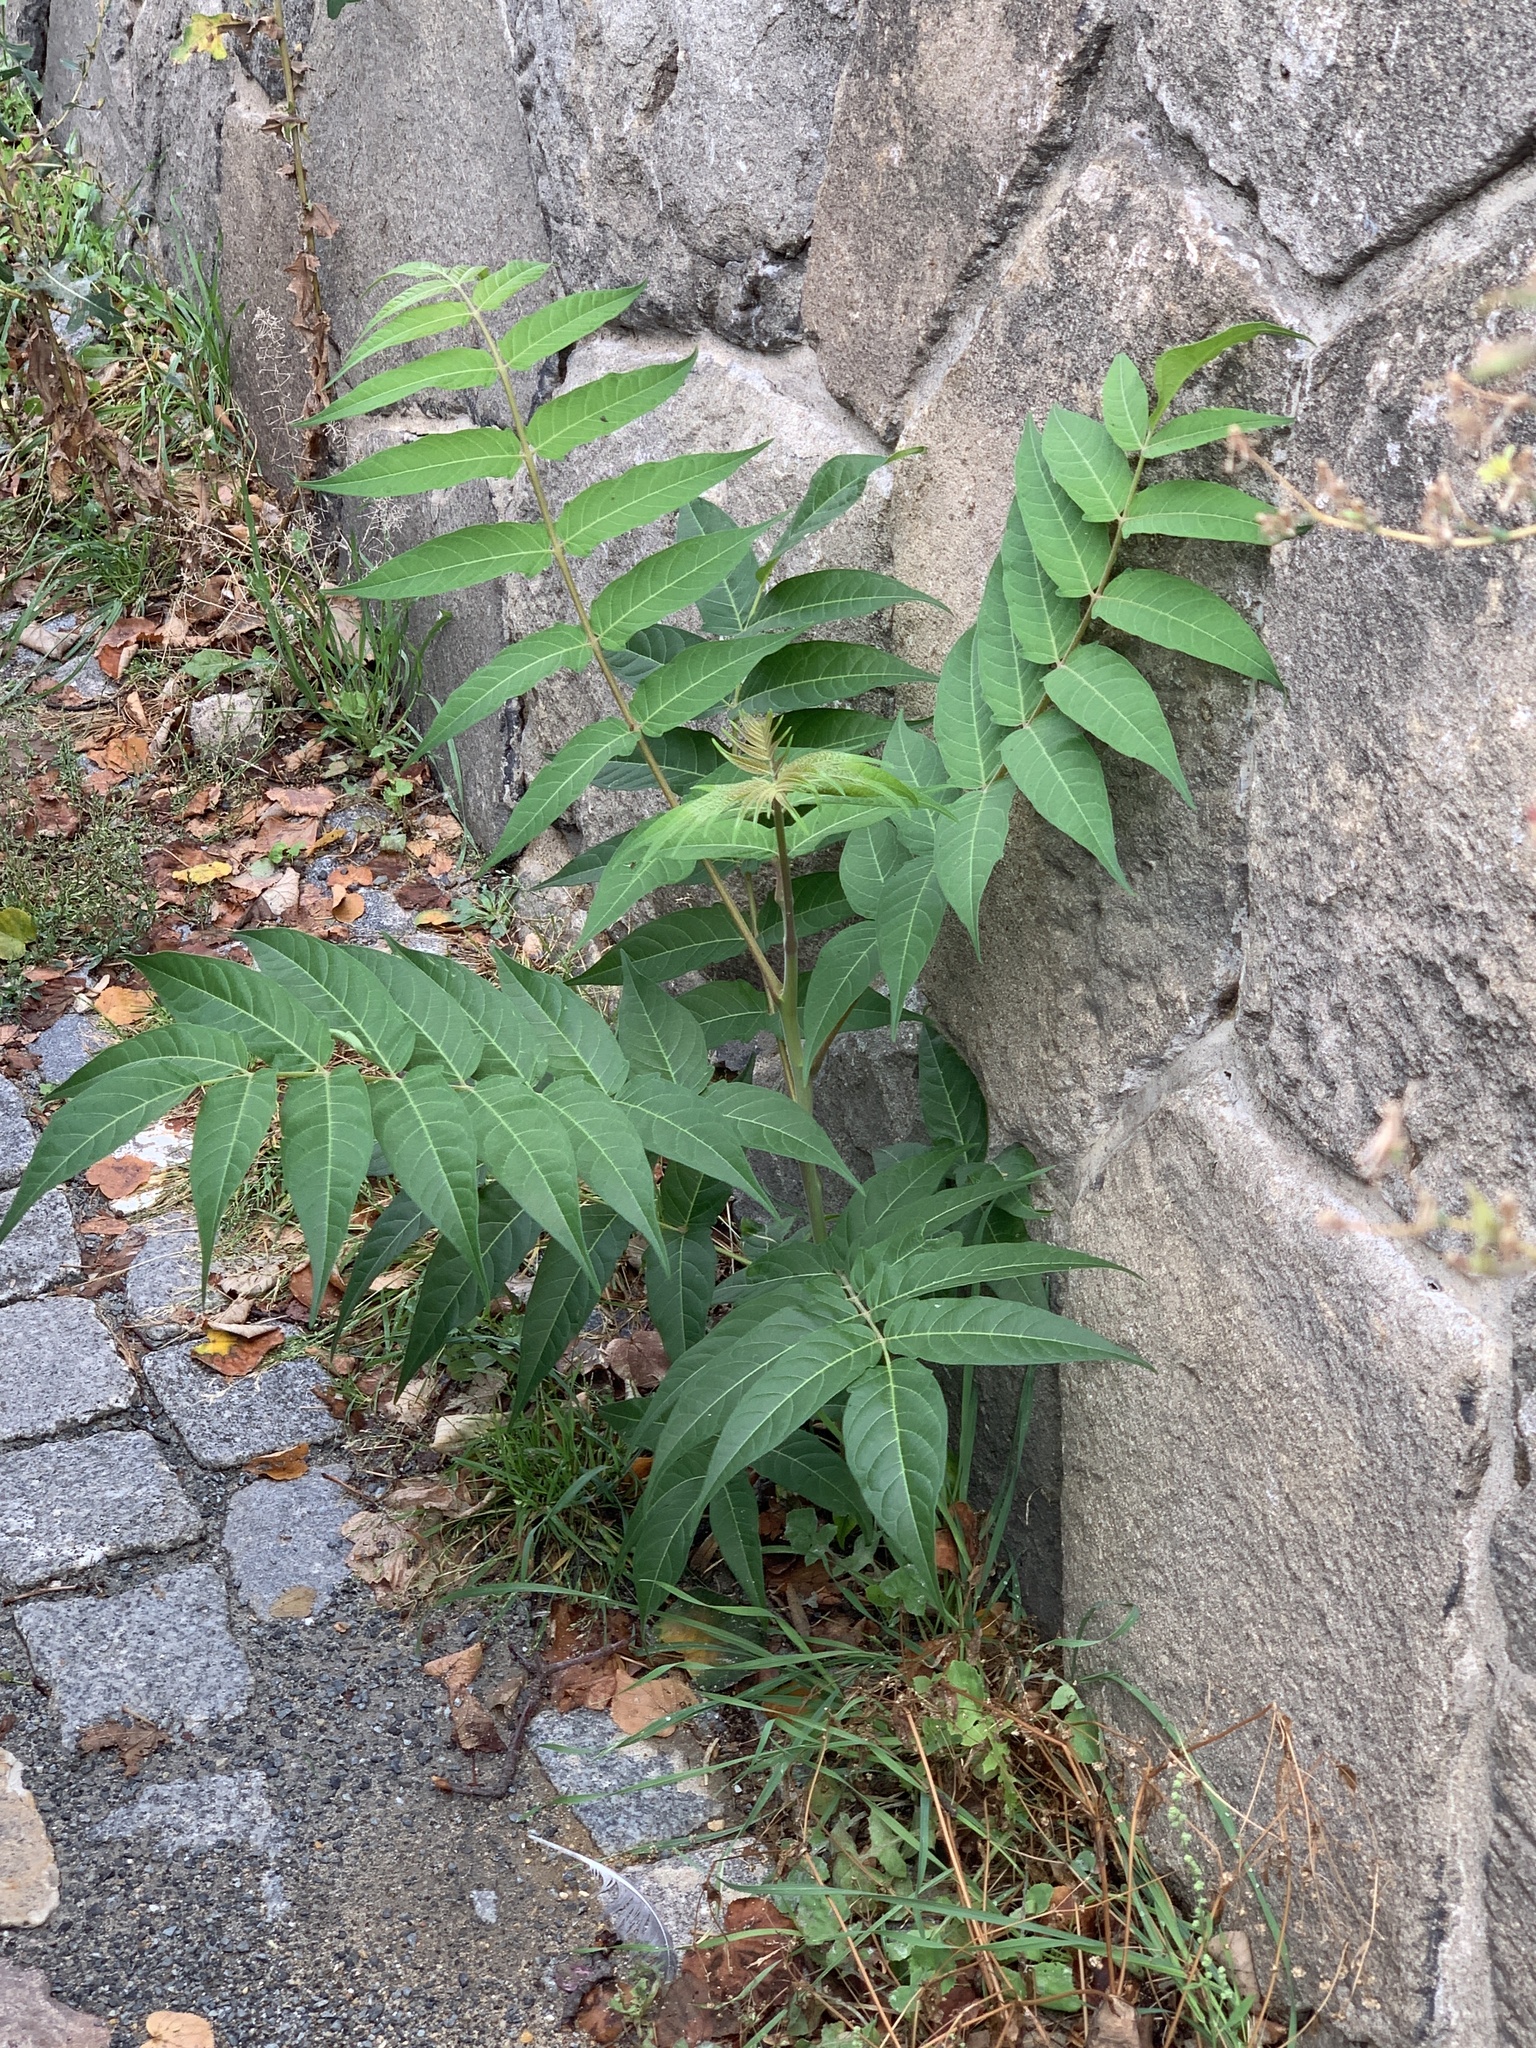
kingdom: Plantae
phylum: Tracheophyta
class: Magnoliopsida
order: Sapindales
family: Simaroubaceae
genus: Ailanthus
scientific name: Ailanthus altissima
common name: Tree-of-heaven
